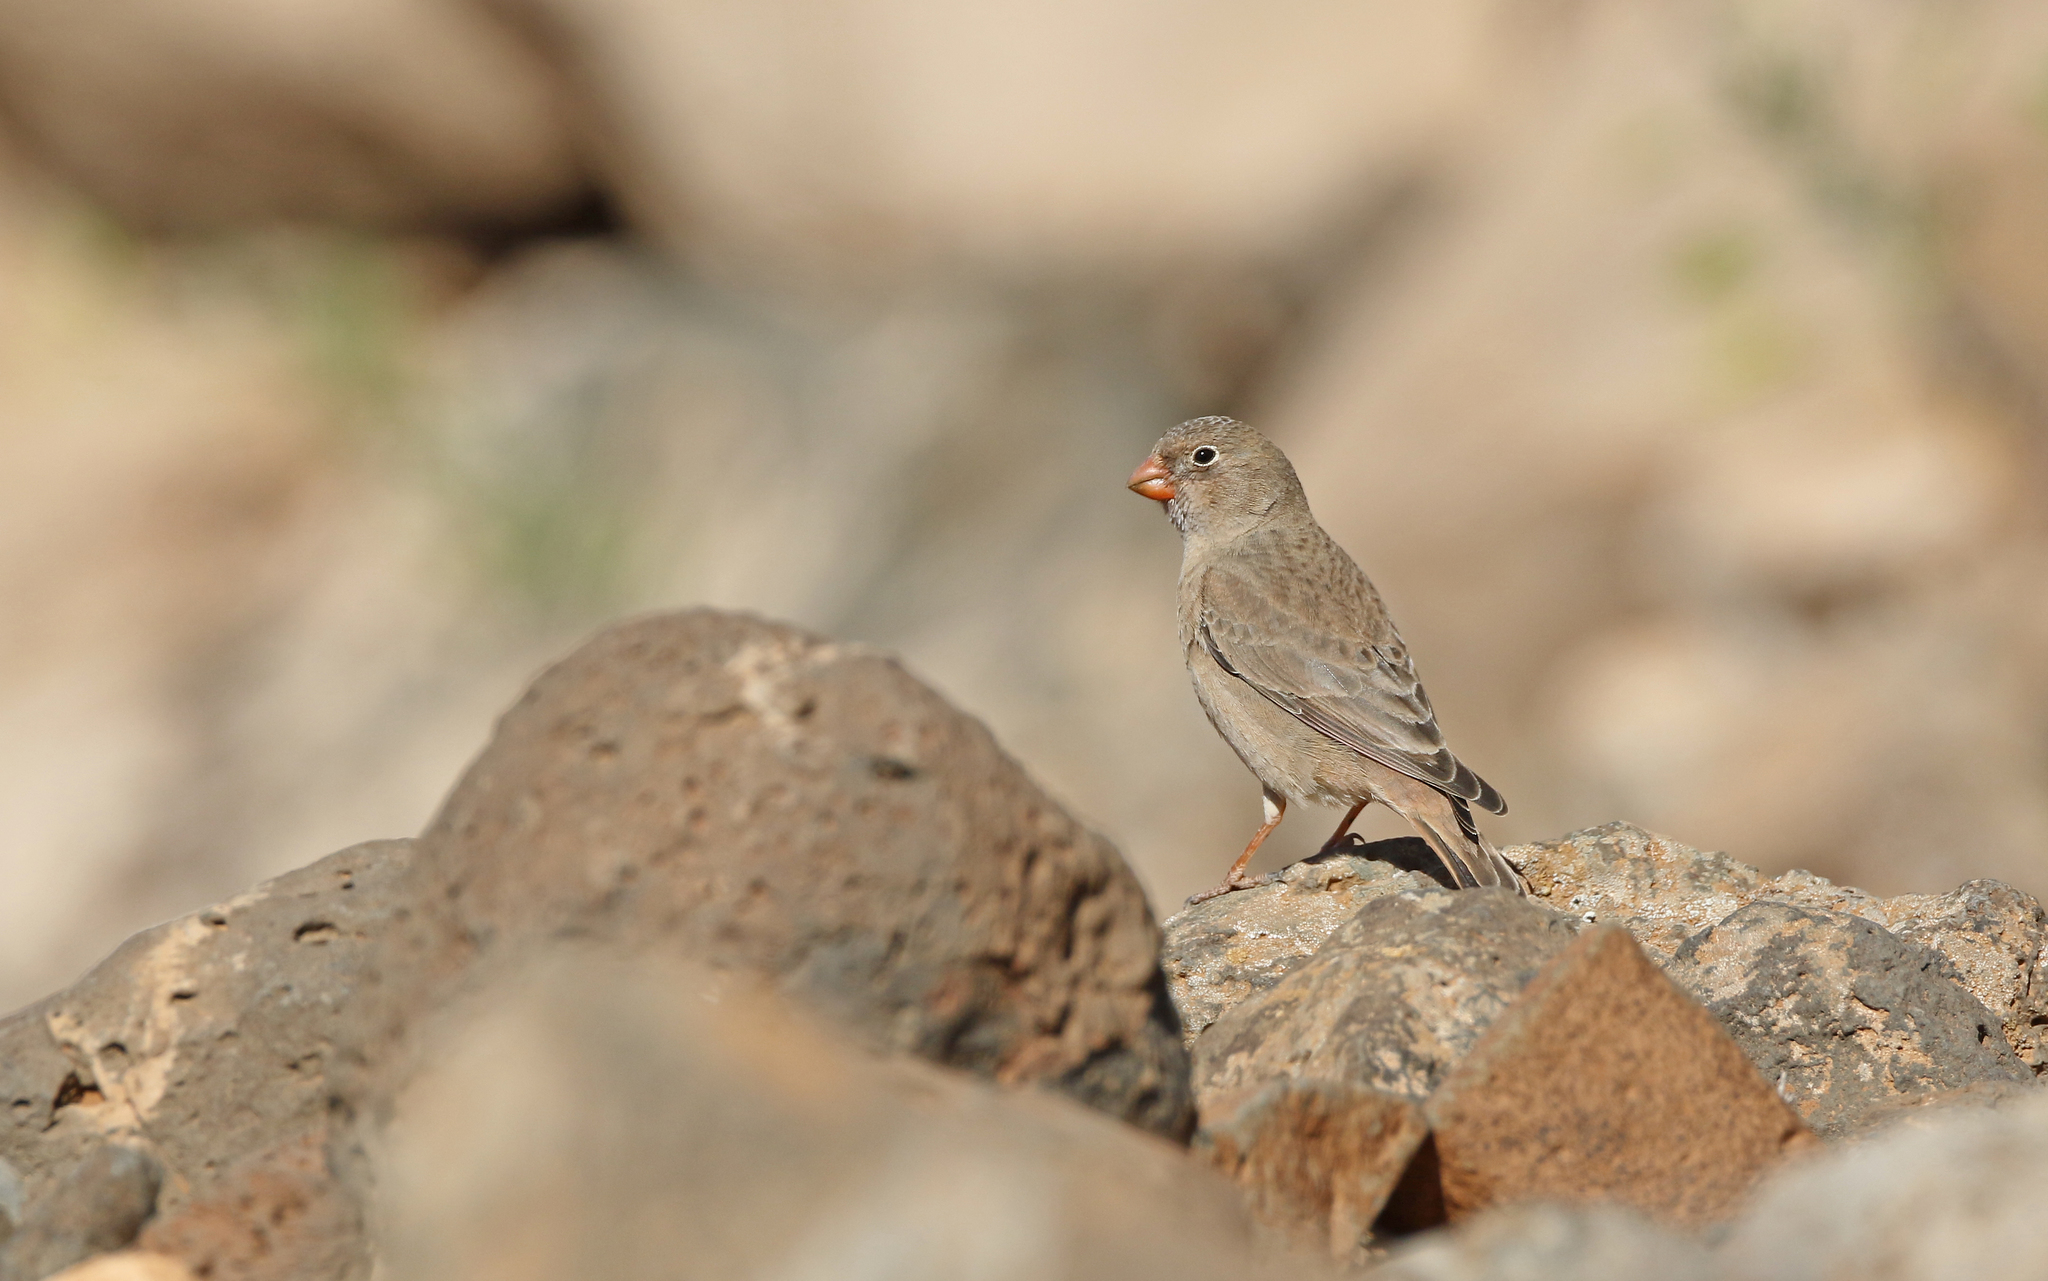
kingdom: Animalia
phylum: Chordata
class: Aves
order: Passeriformes
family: Fringillidae
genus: Bucanetes
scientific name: Bucanetes githagineus
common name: Trumpeter finch
